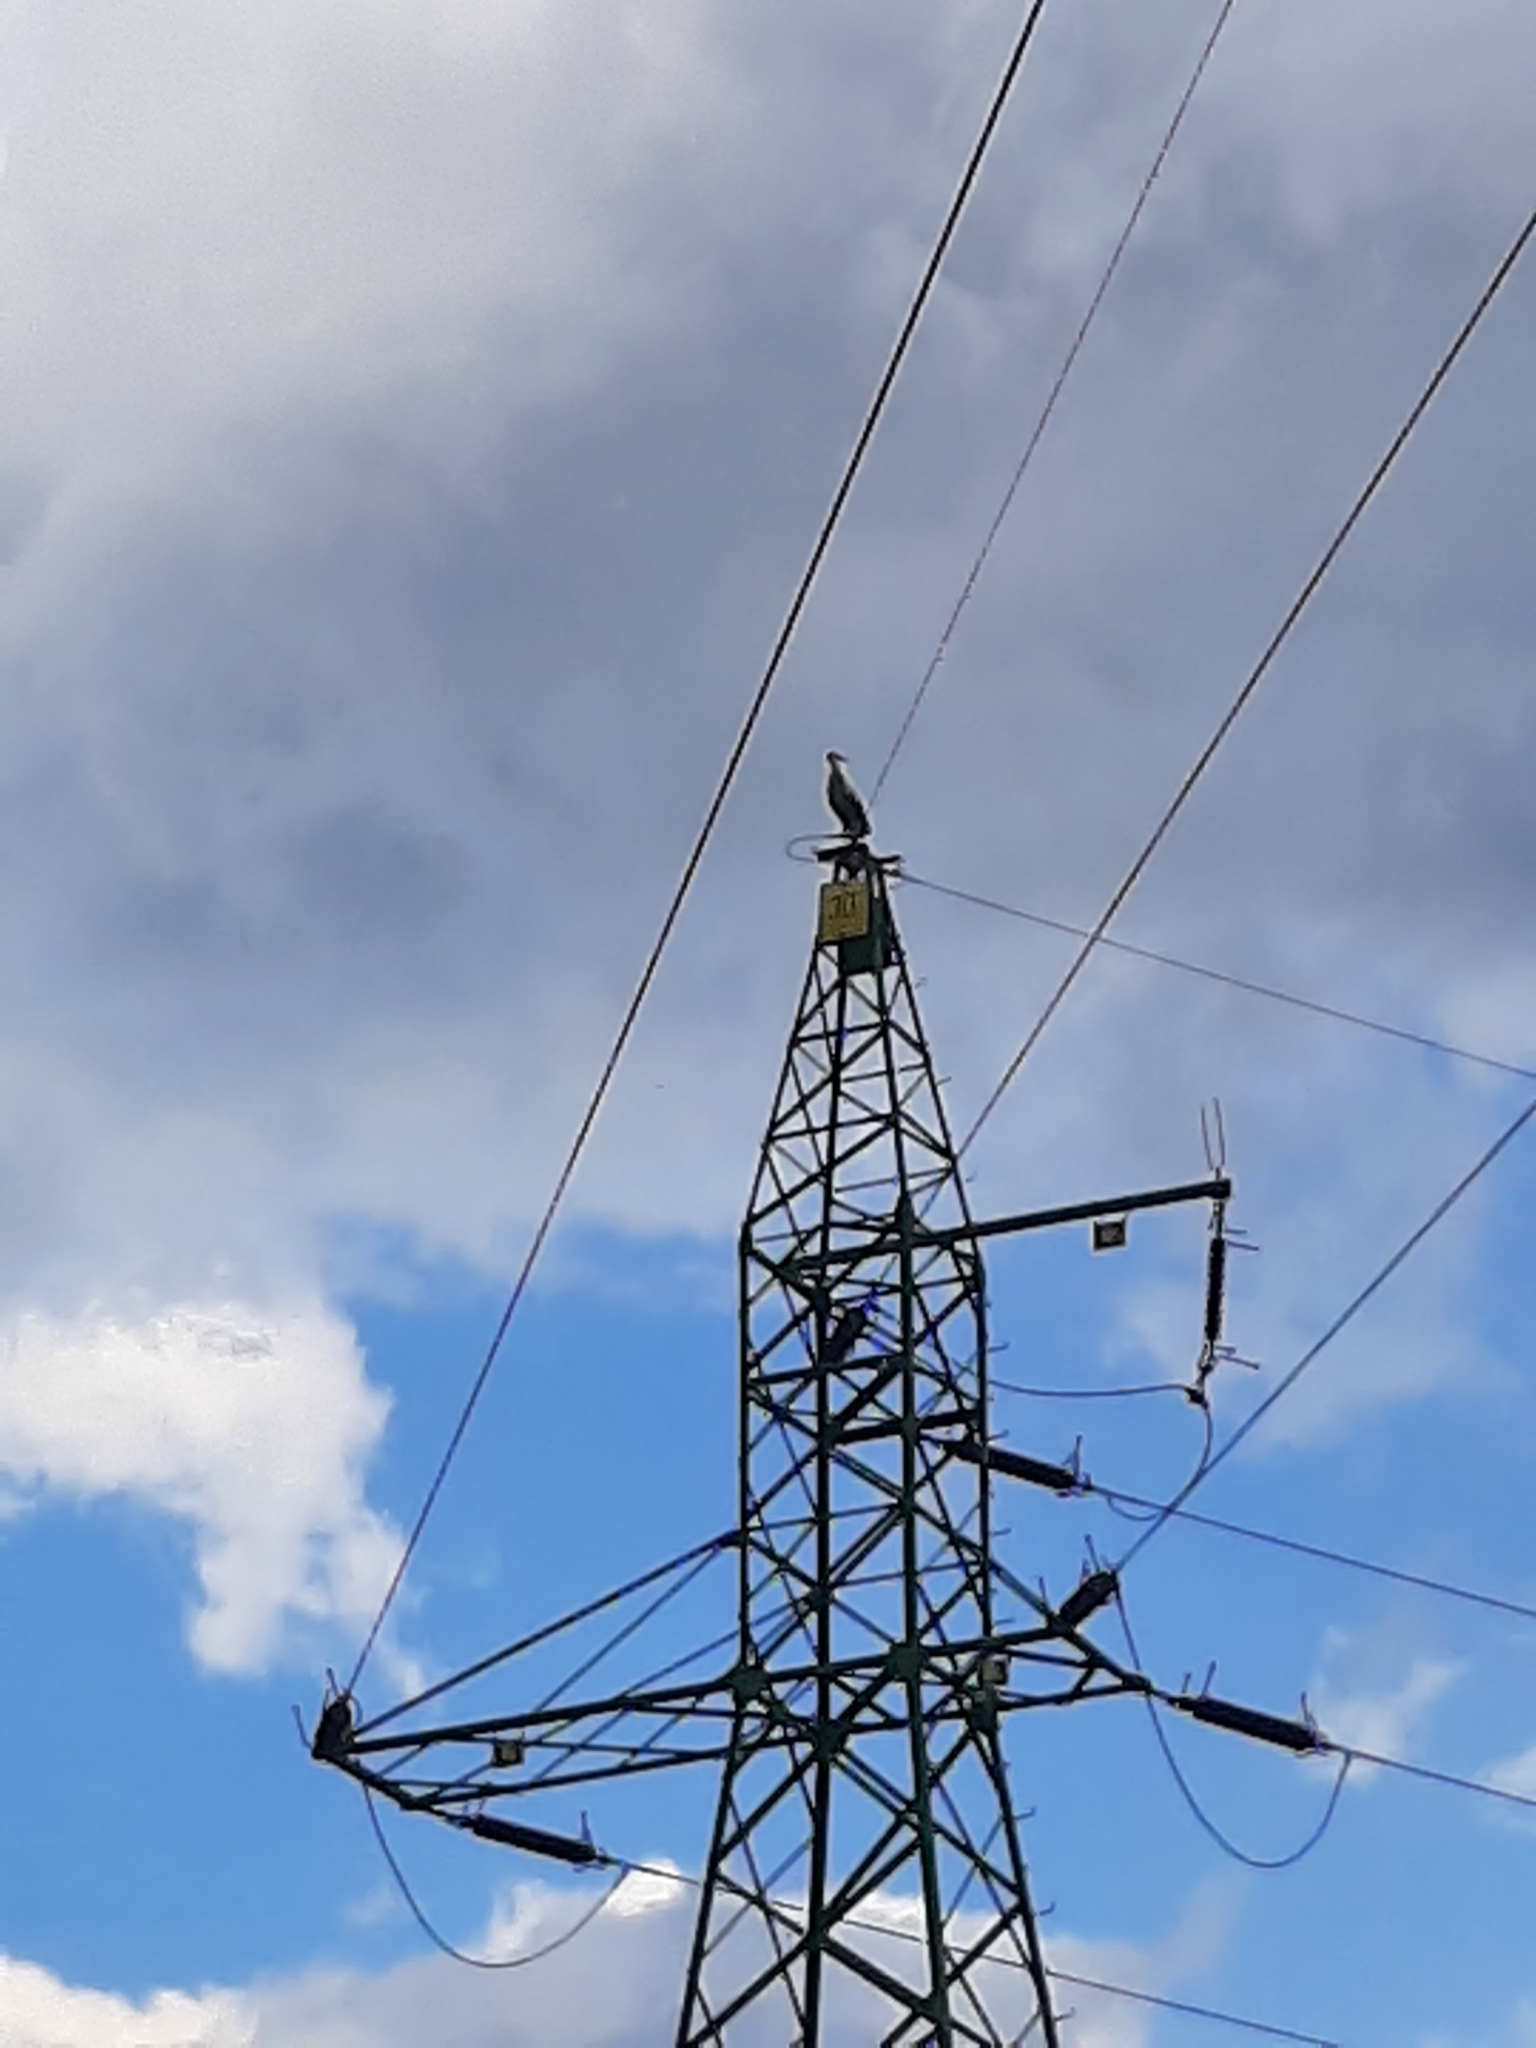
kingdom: Animalia
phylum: Chordata
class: Aves
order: Ciconiiformes
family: Ciconiidae
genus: Ciconia
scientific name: Ciconia ciconia
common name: White stork
